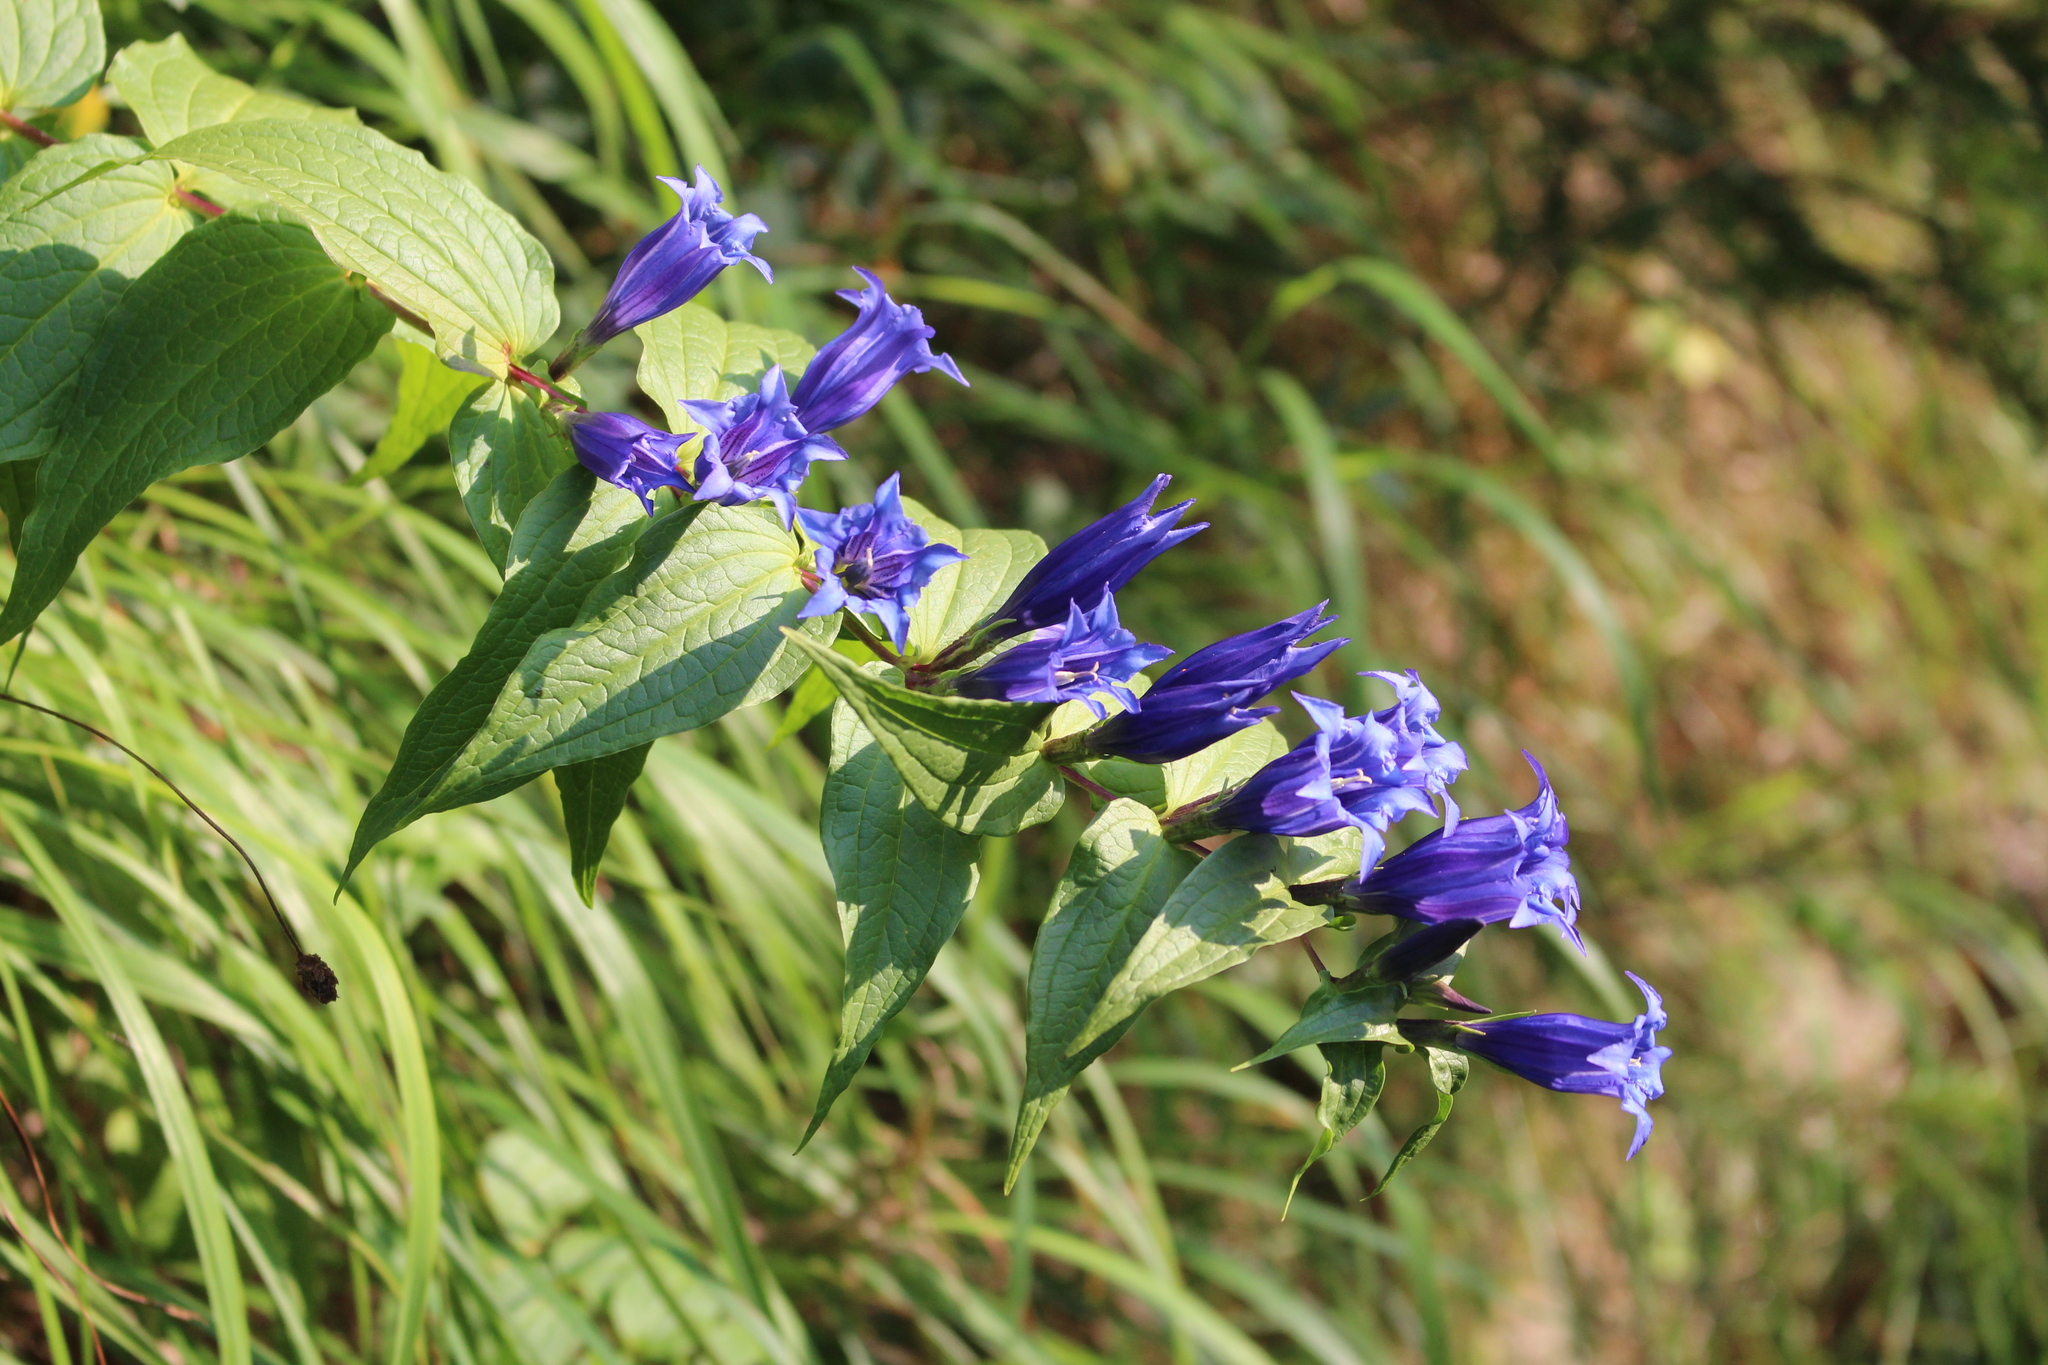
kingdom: Plantae
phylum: Tracheophyta
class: Magnoliopsida
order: Gentianales
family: Gentianaceae
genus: Gentiana
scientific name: Gentiana asclepiadea
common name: Willow gentian
